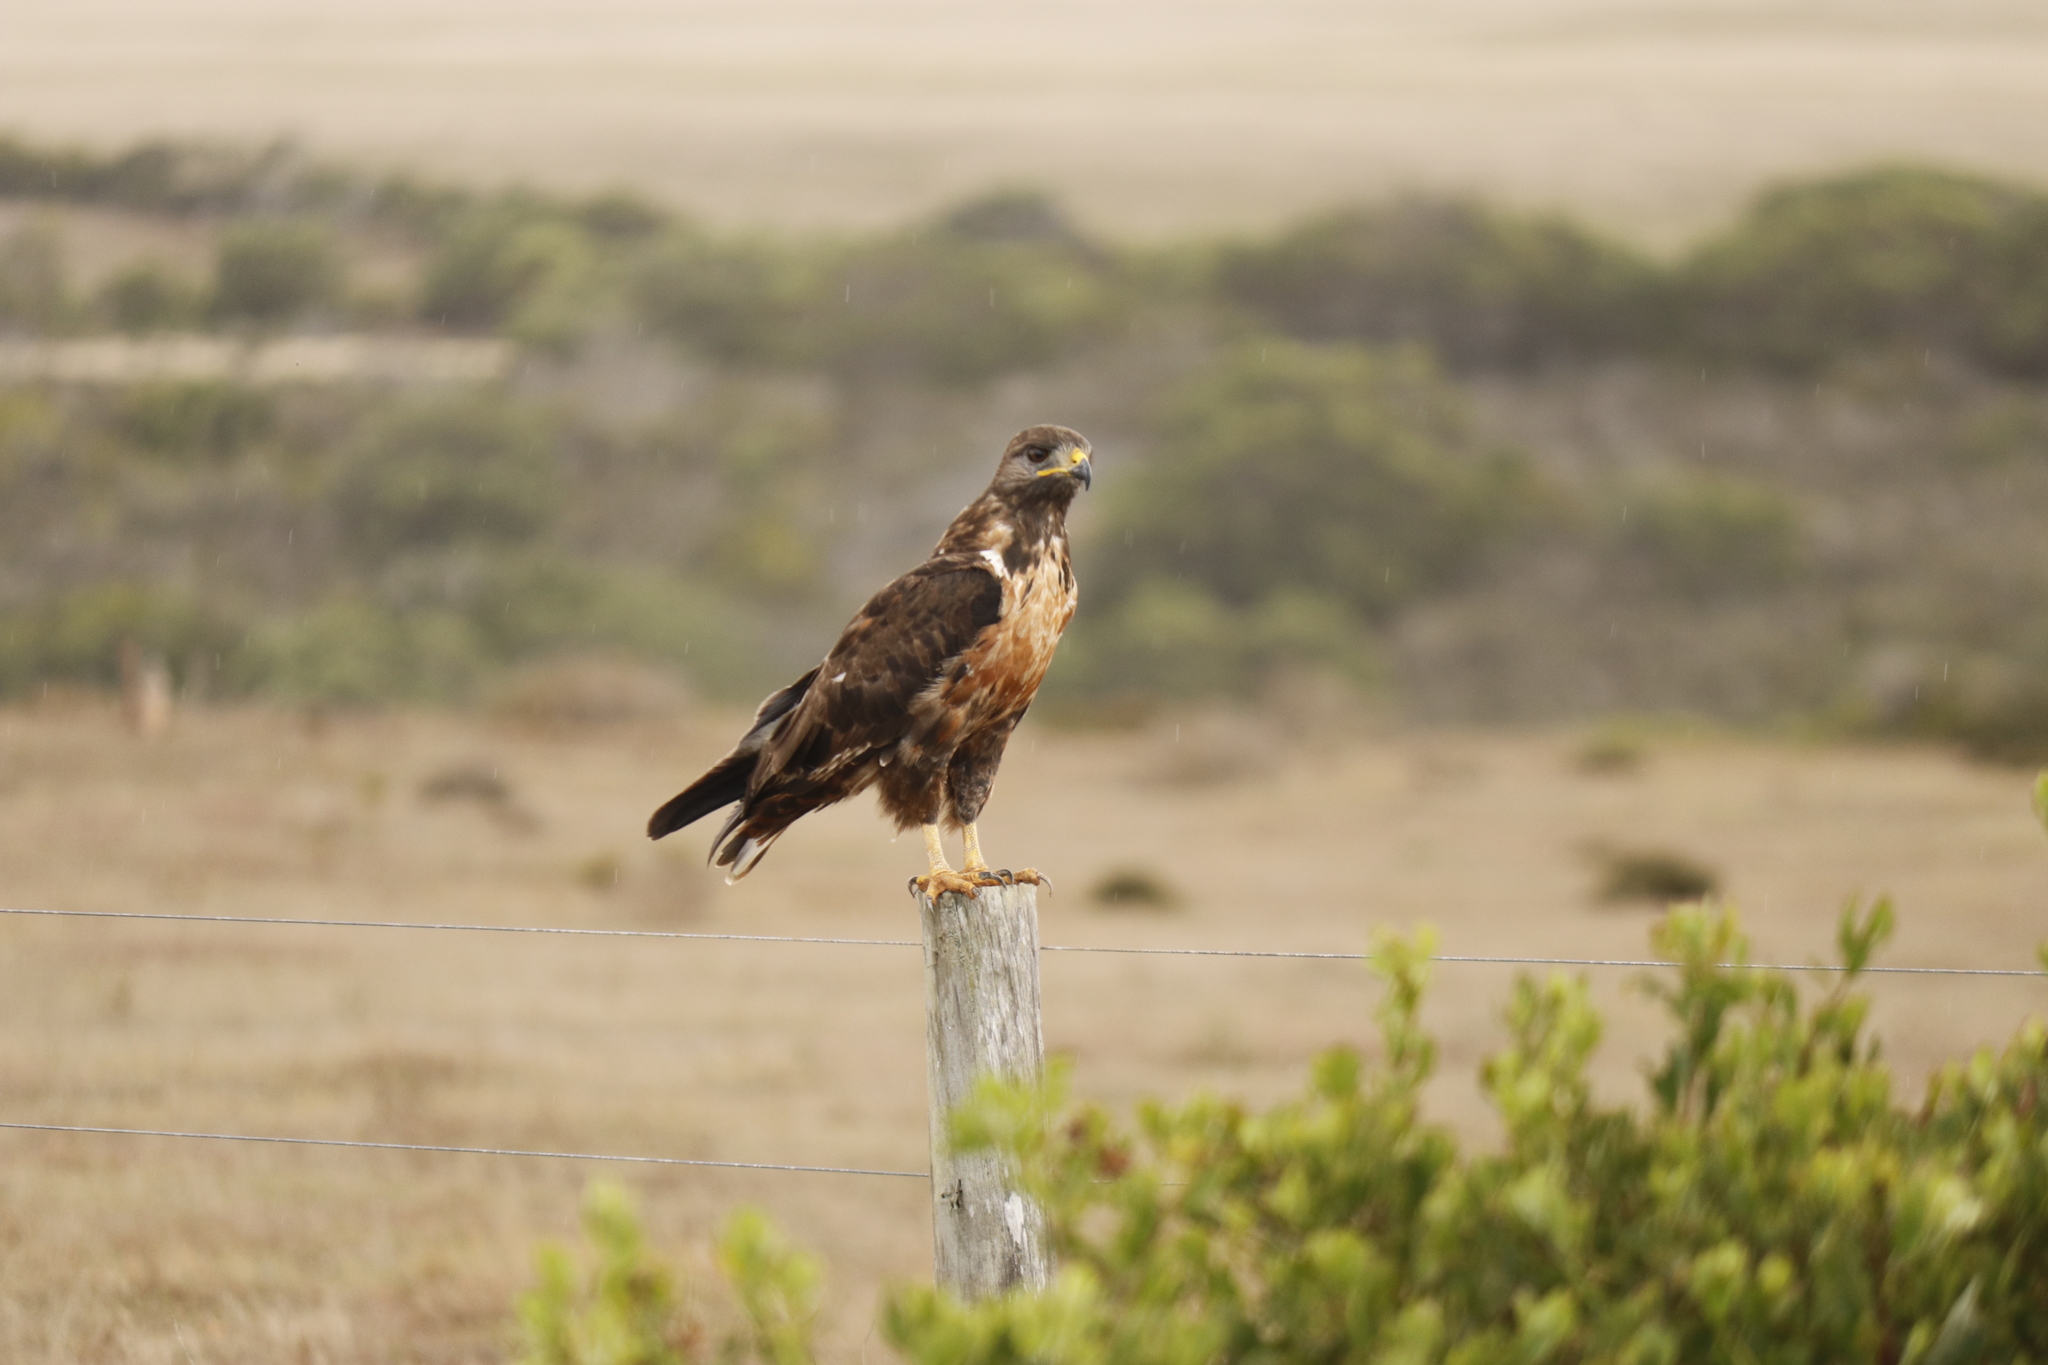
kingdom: Animalia
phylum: Chordata
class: Aves
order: Accipitriformes
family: Accipitridae
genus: Buteo
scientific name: Buteo rufofuscus
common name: Jackal buzzard
